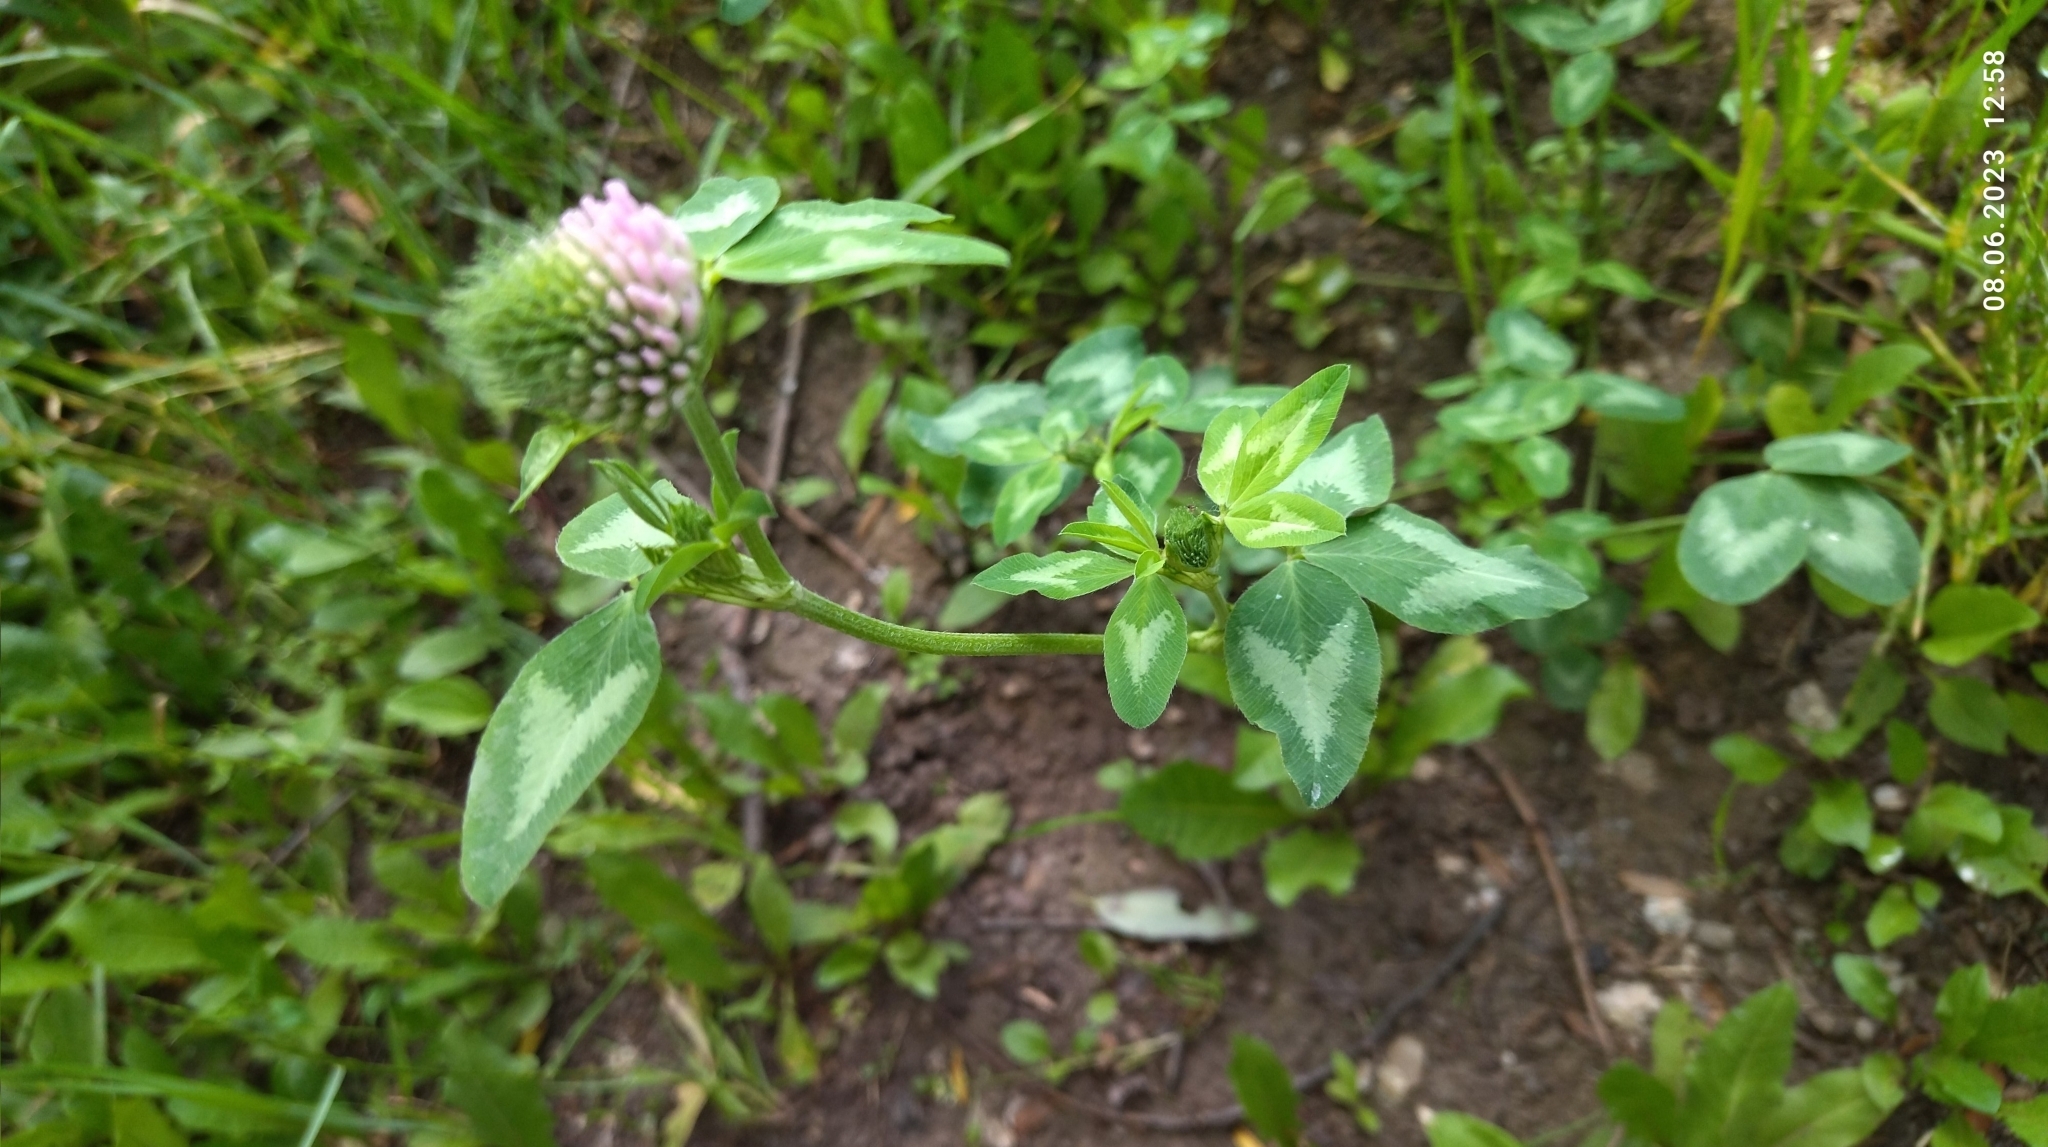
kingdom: Plantae
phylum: Tracheophyta
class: Magnoliopsida
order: Fabales
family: Fabaceae
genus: Trifolium
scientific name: Trifolium pratense
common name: Red clover
